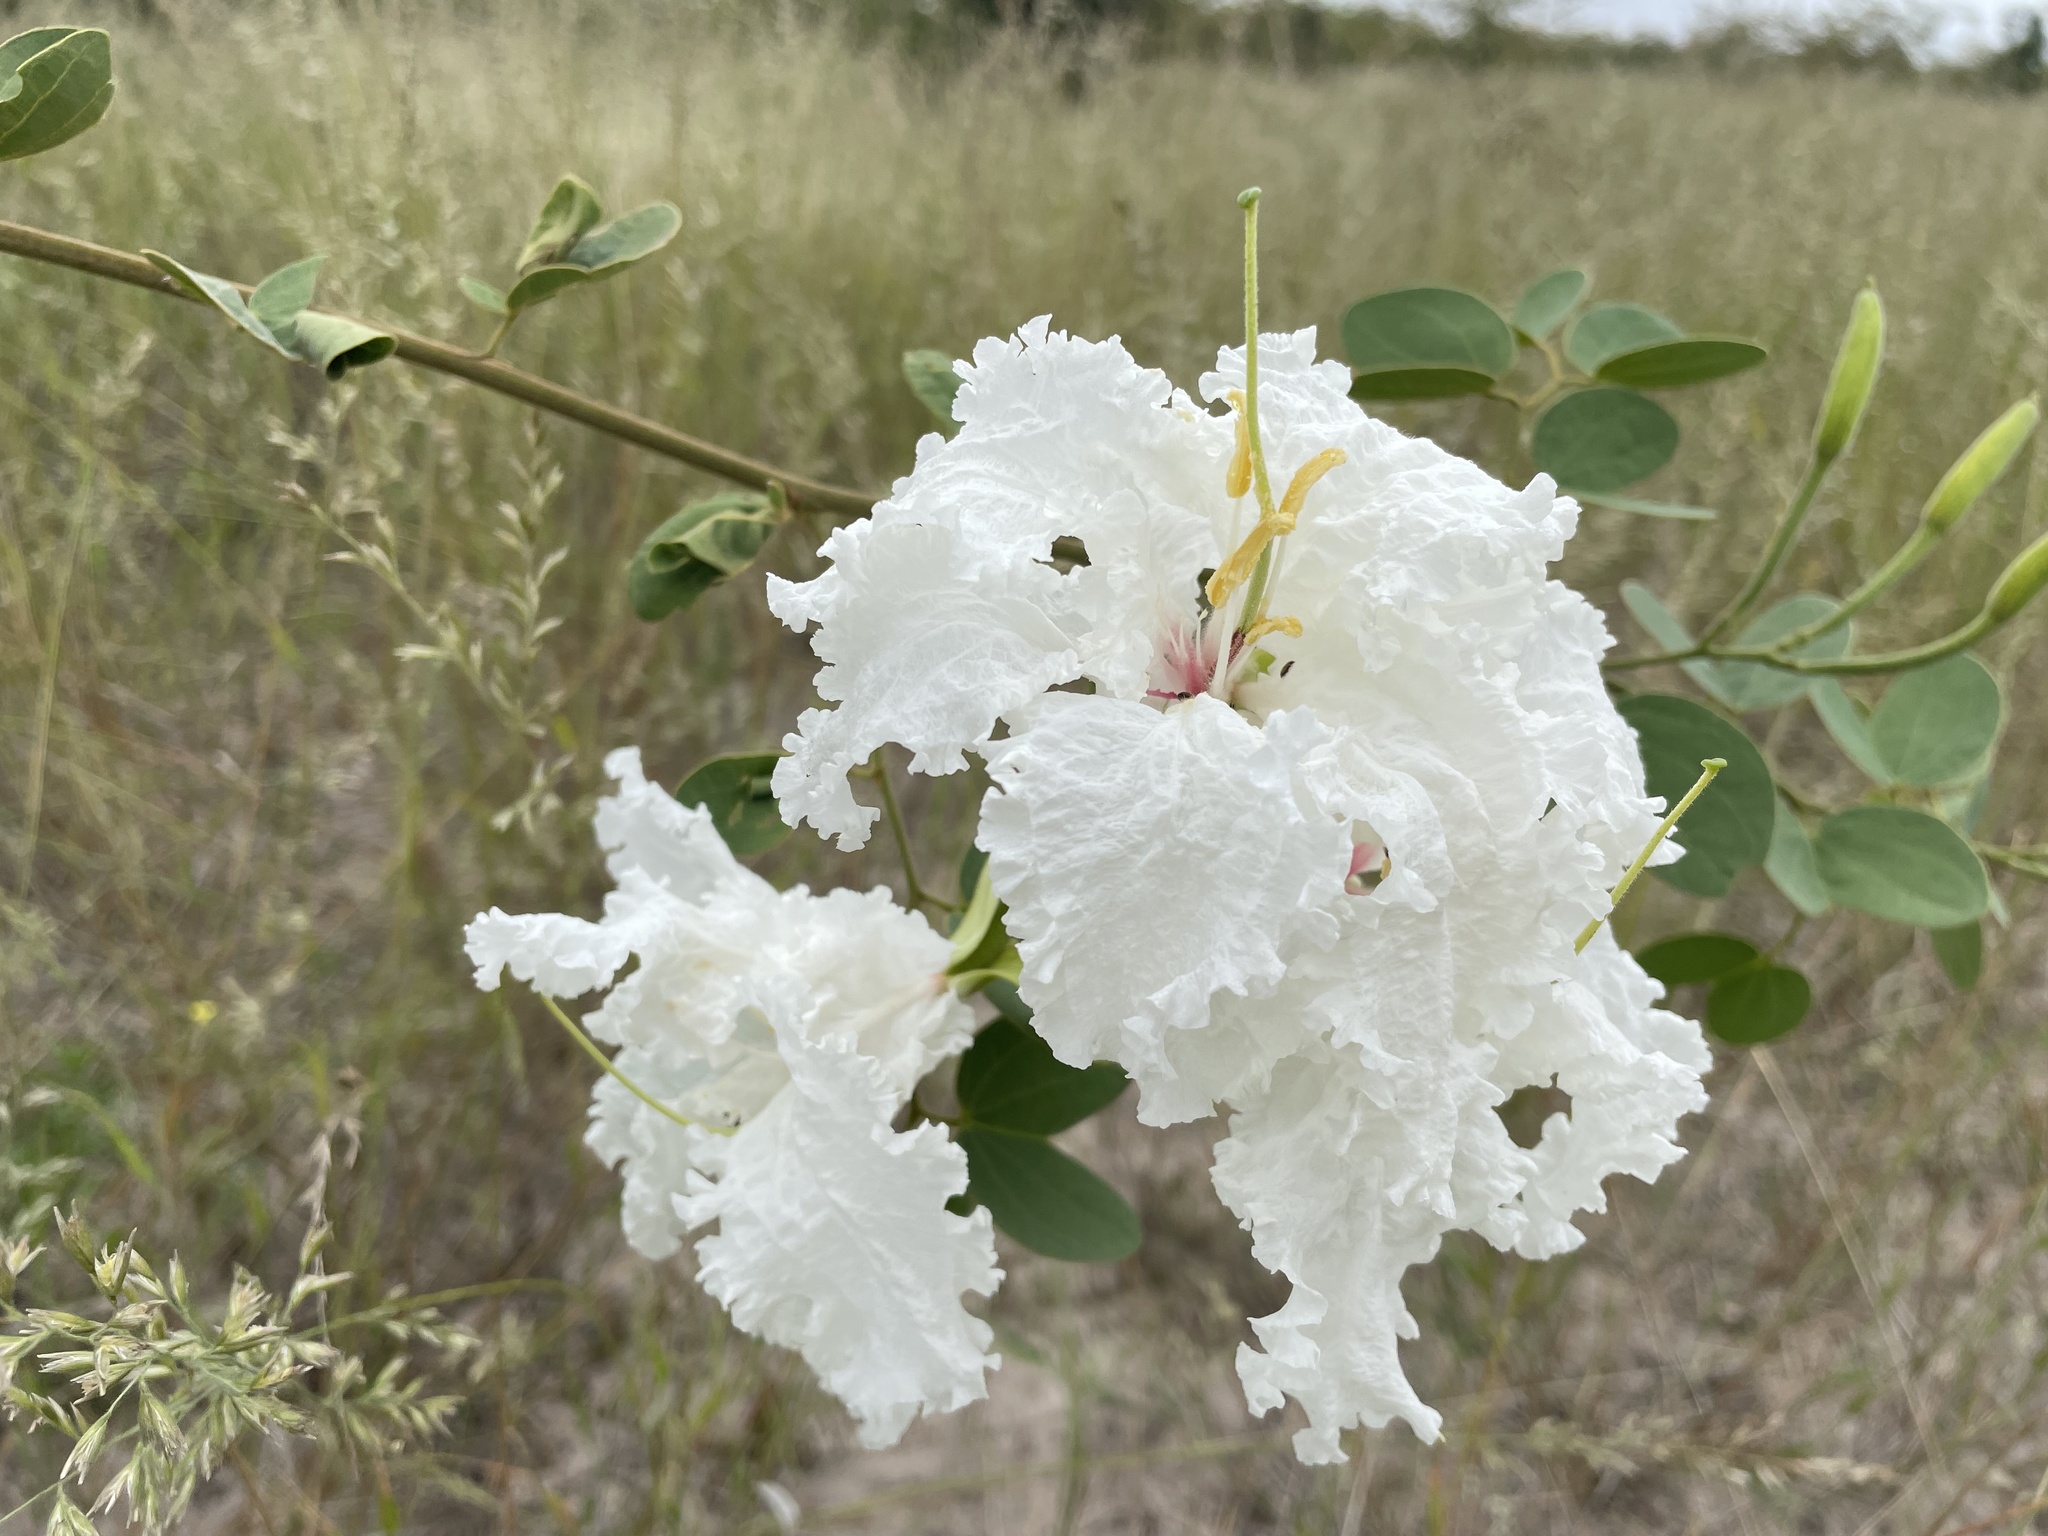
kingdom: Plantae
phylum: Tracheophyta
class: Magnoliopsida
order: Fabales
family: Fabaceae
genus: Bauhinia
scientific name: Bauhinia macrantha
